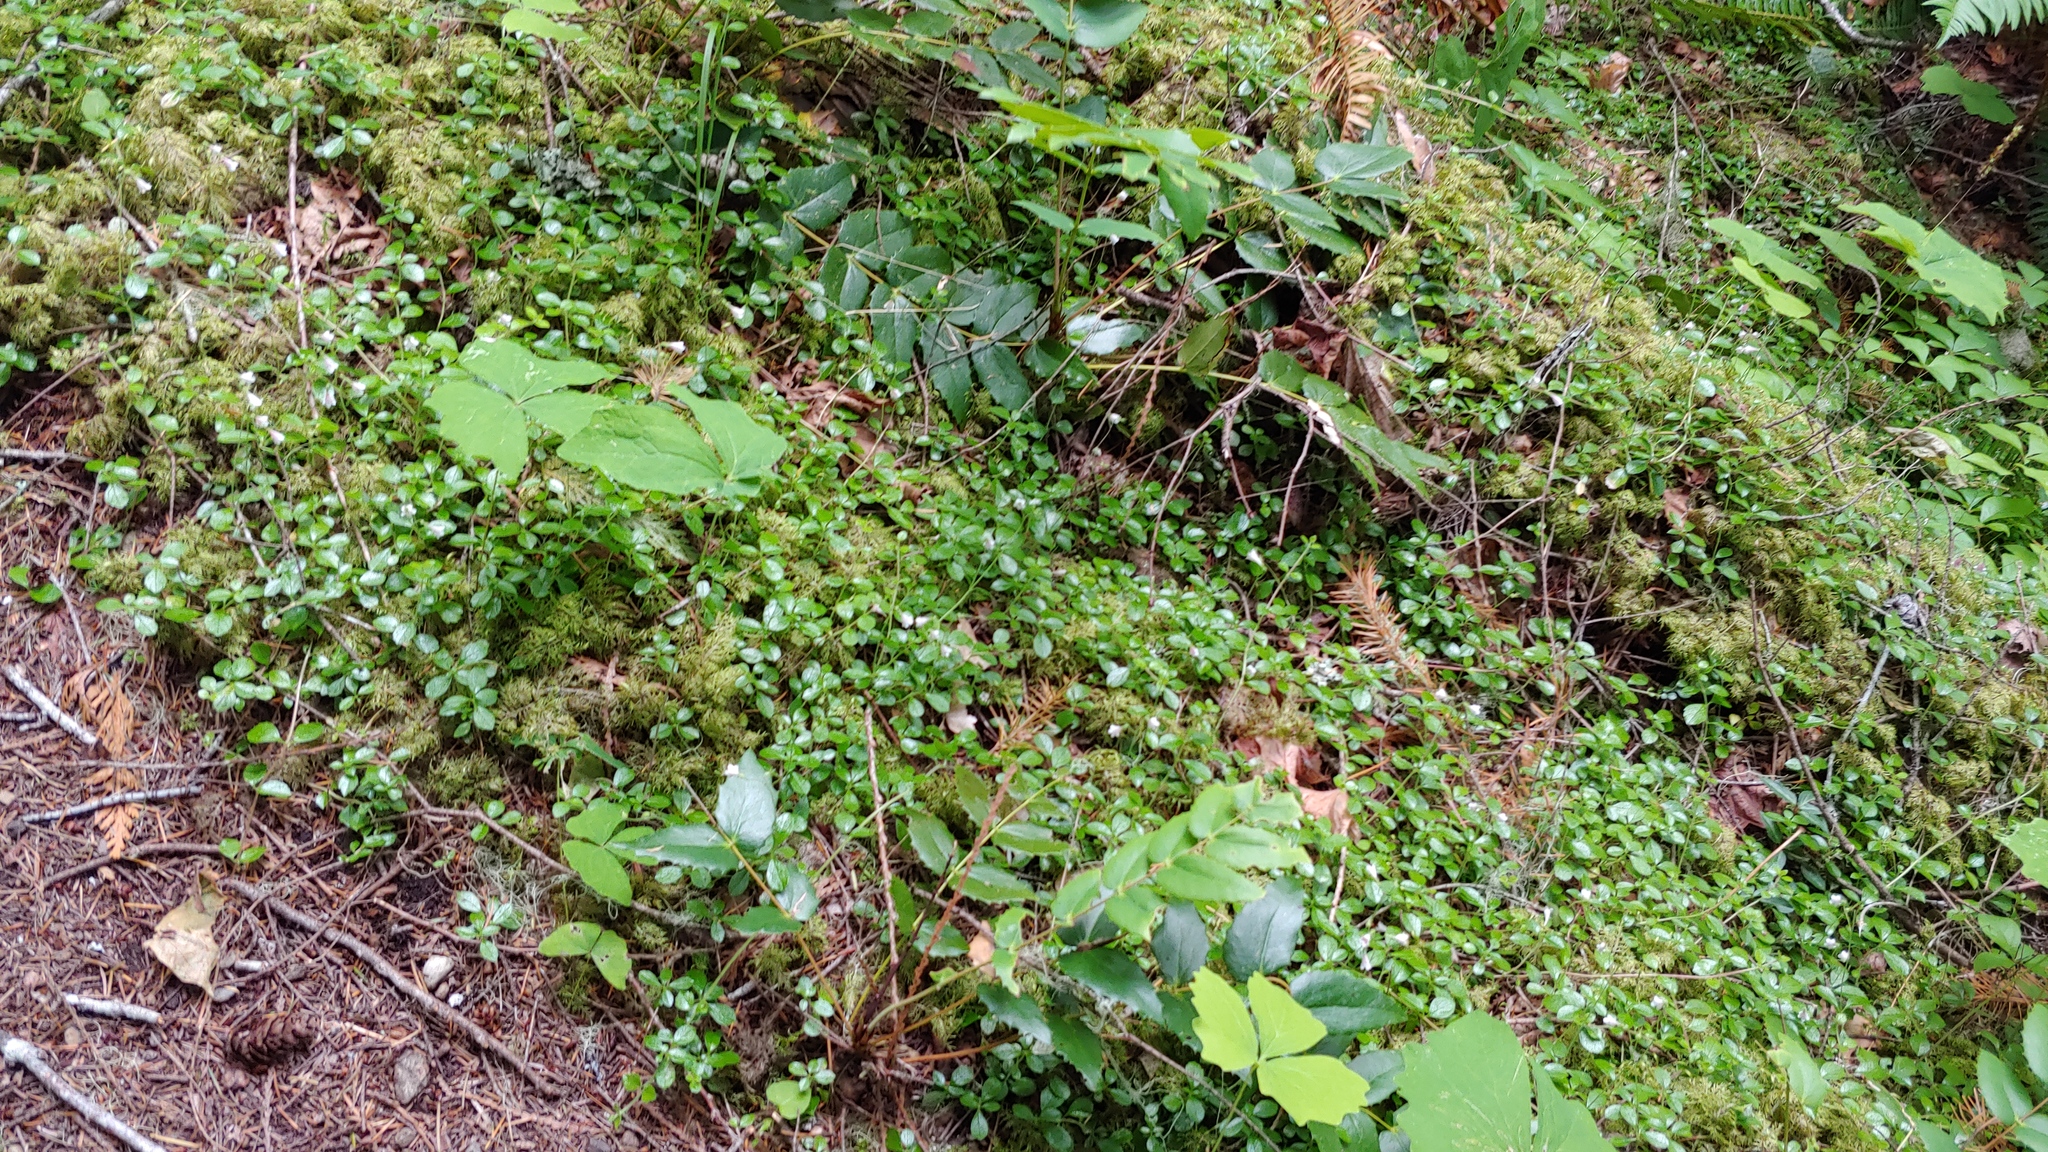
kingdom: Plantae
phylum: Tracheophyta
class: Magnoliopsida
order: Ranunculales
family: Berberidaceae
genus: Mahonia
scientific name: Mahonia nervosa
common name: Cascade oregon-grape
